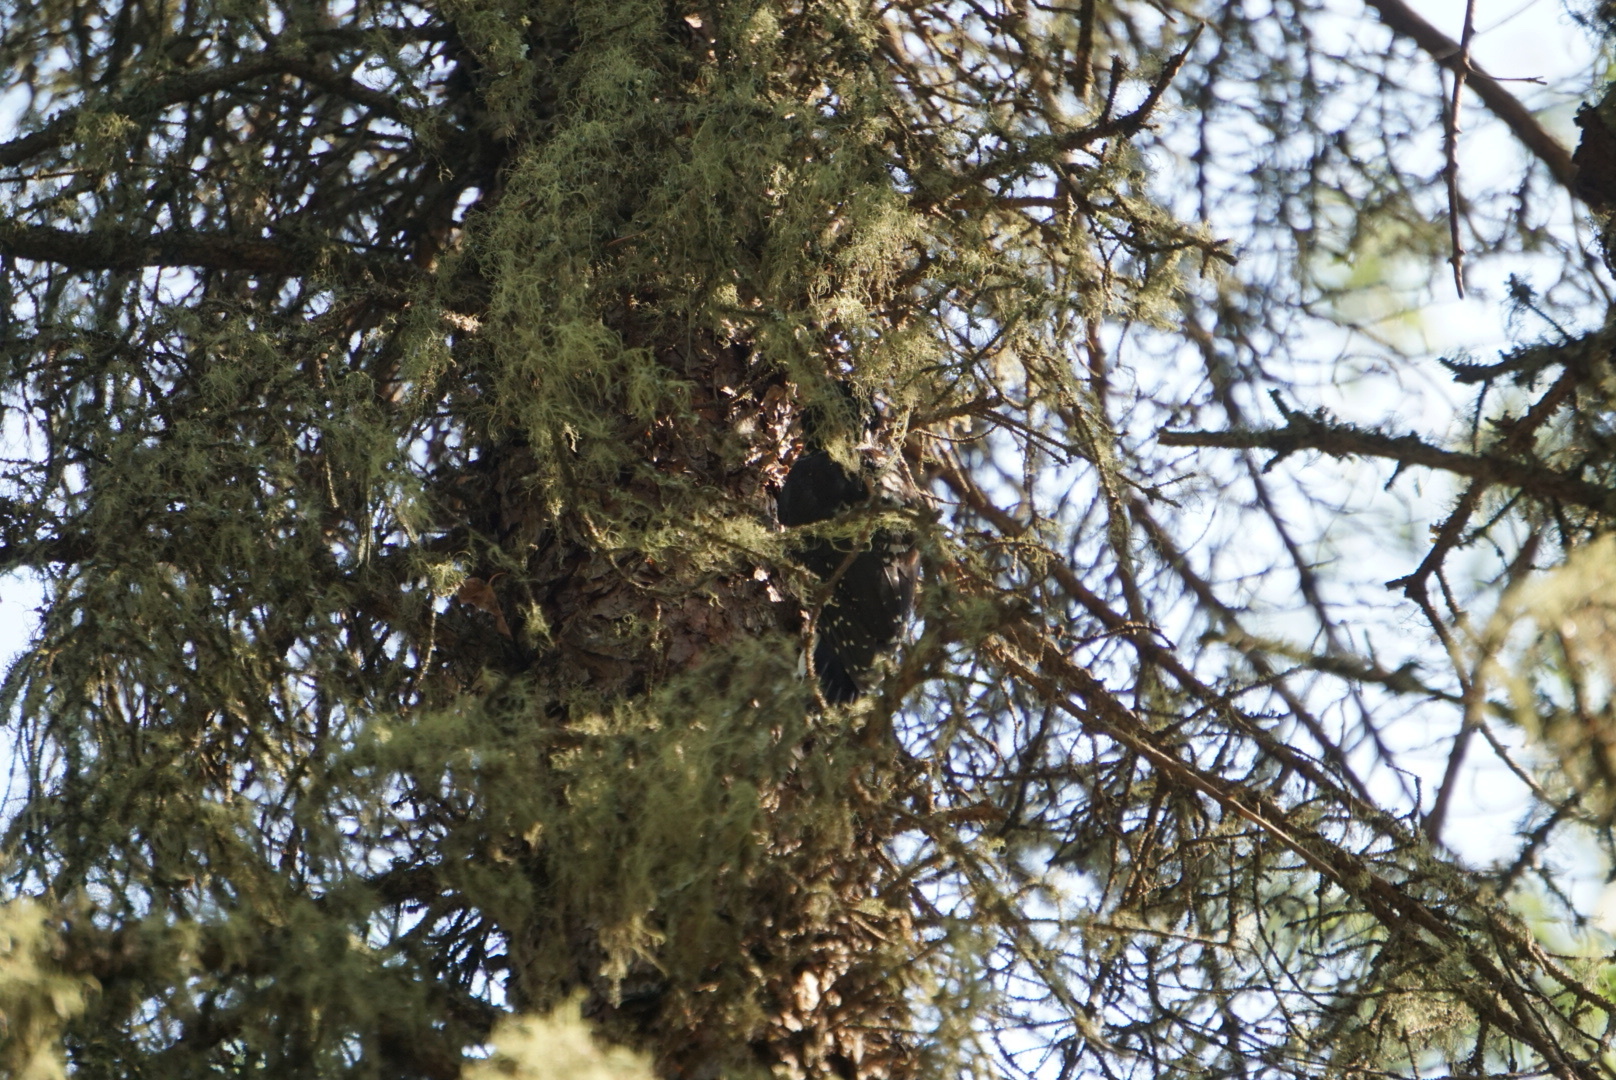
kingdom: Animalia
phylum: Chordata
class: Aves
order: Piciformes
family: Picidae
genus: Picoides
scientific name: Picoides dorsalis
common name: American three-toed woodpecker
